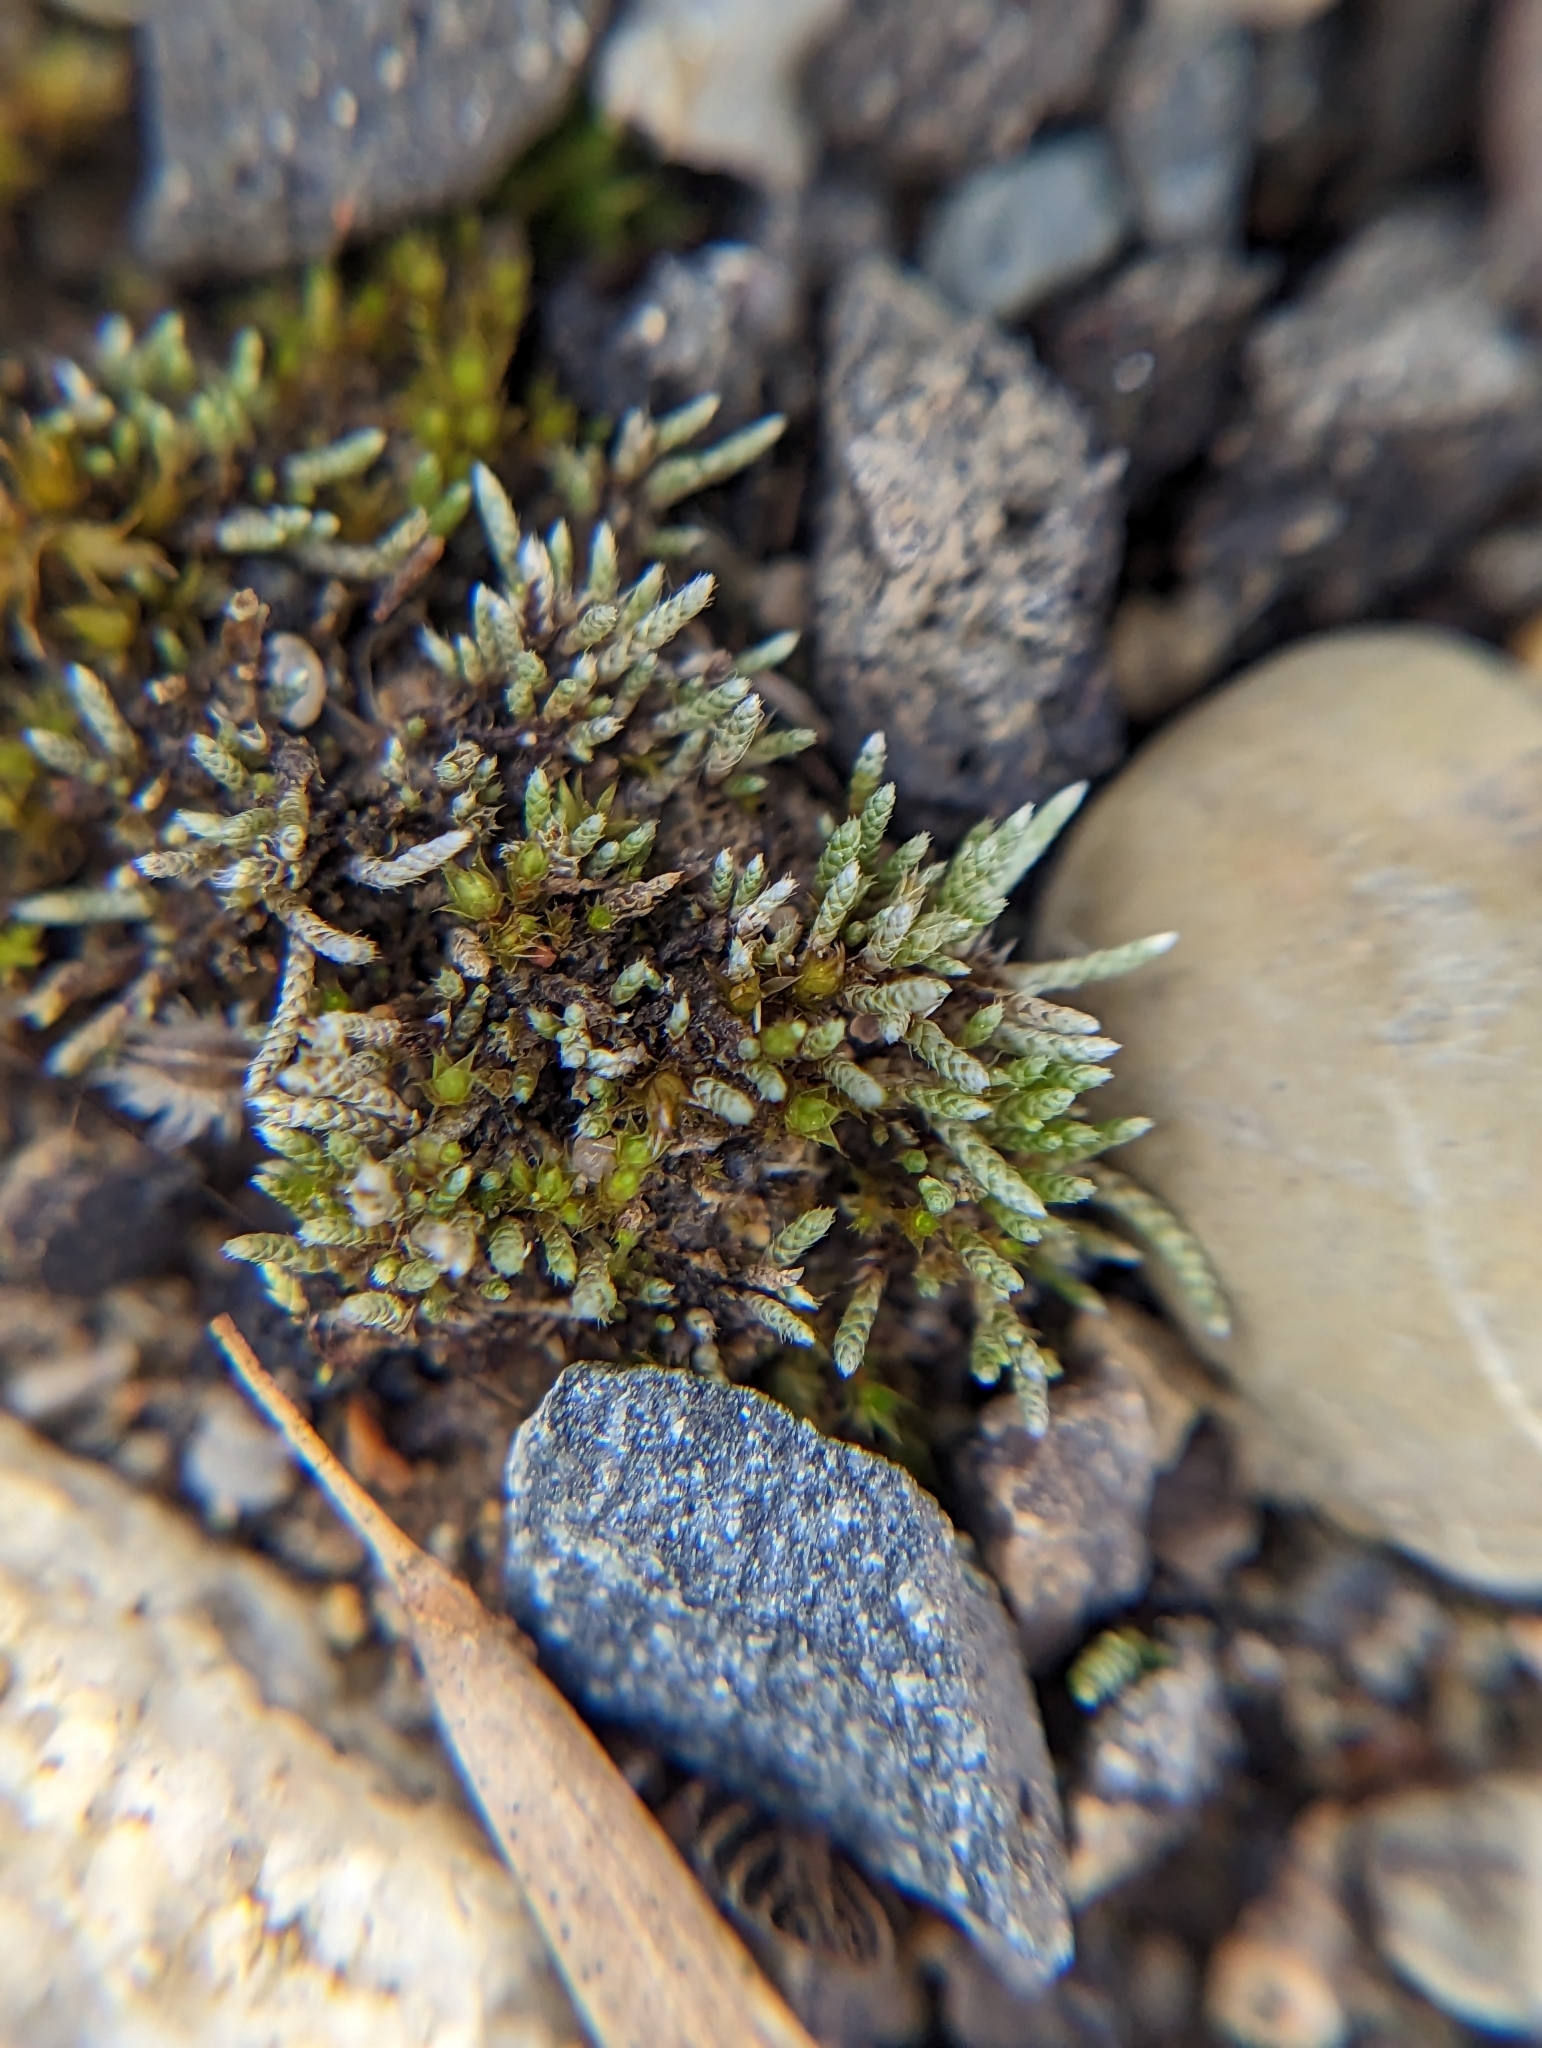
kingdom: Plantae
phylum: Bryophyta
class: Bryopsida
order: Bryales
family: Bryaceae
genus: Bryum
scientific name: Bryum argenteum
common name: Silver-moss
